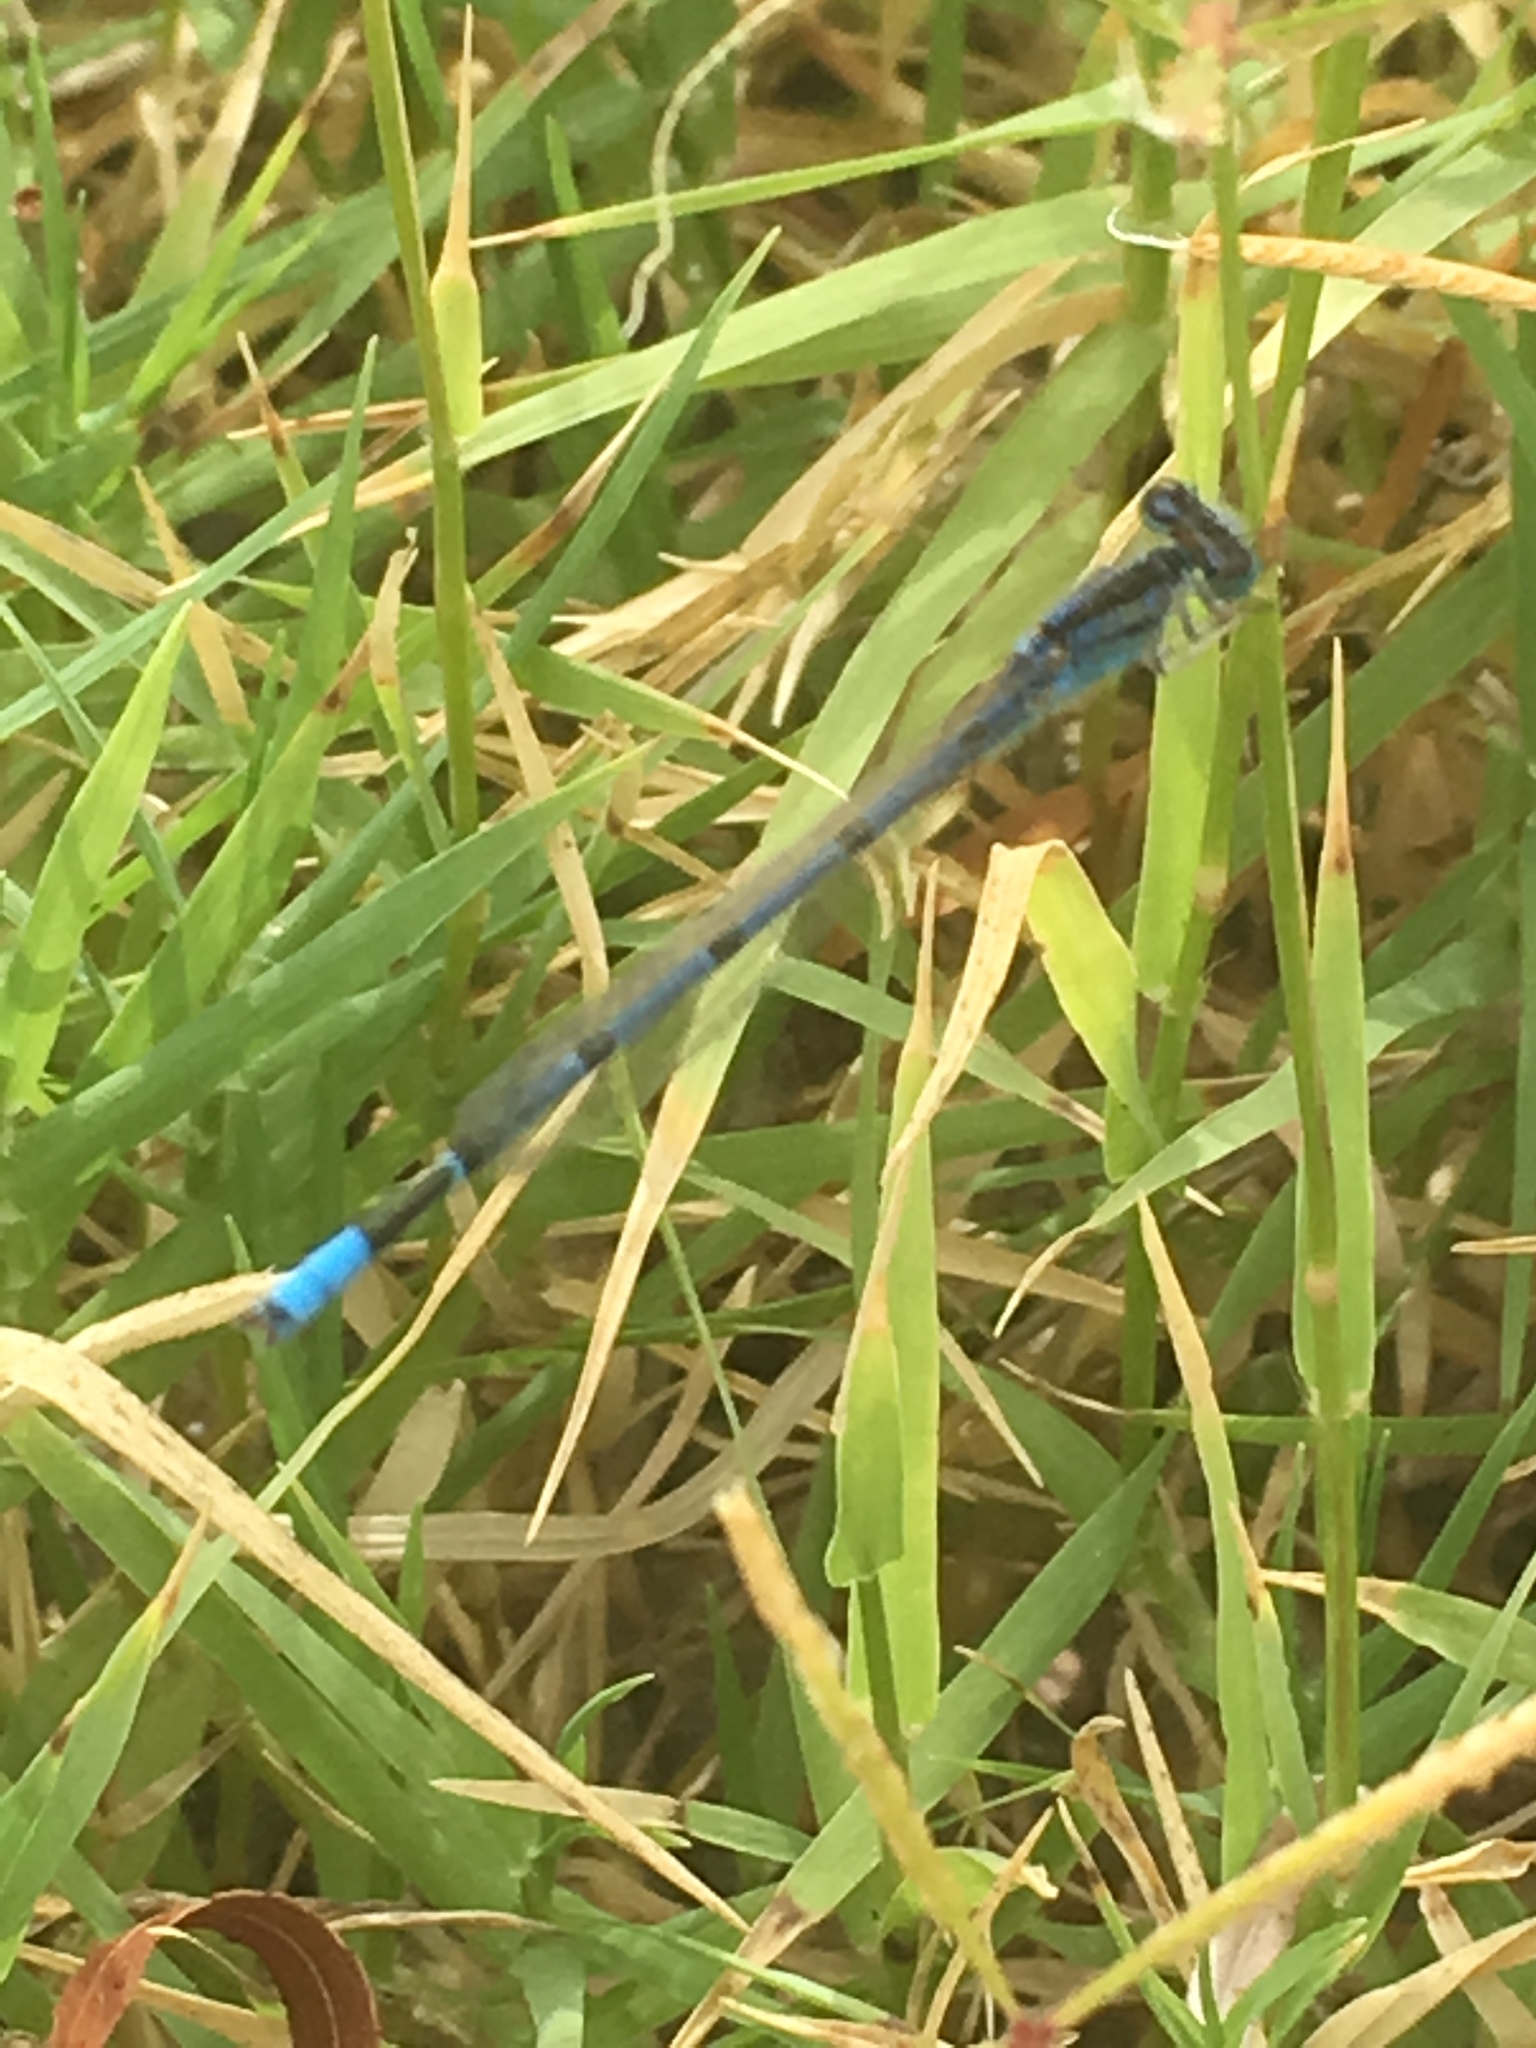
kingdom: Animalia
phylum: Arthropoda
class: Insecta
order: Odonata
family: Coenagrionidae
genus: Enallagma
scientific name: Enallagma civile
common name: Damselfly
